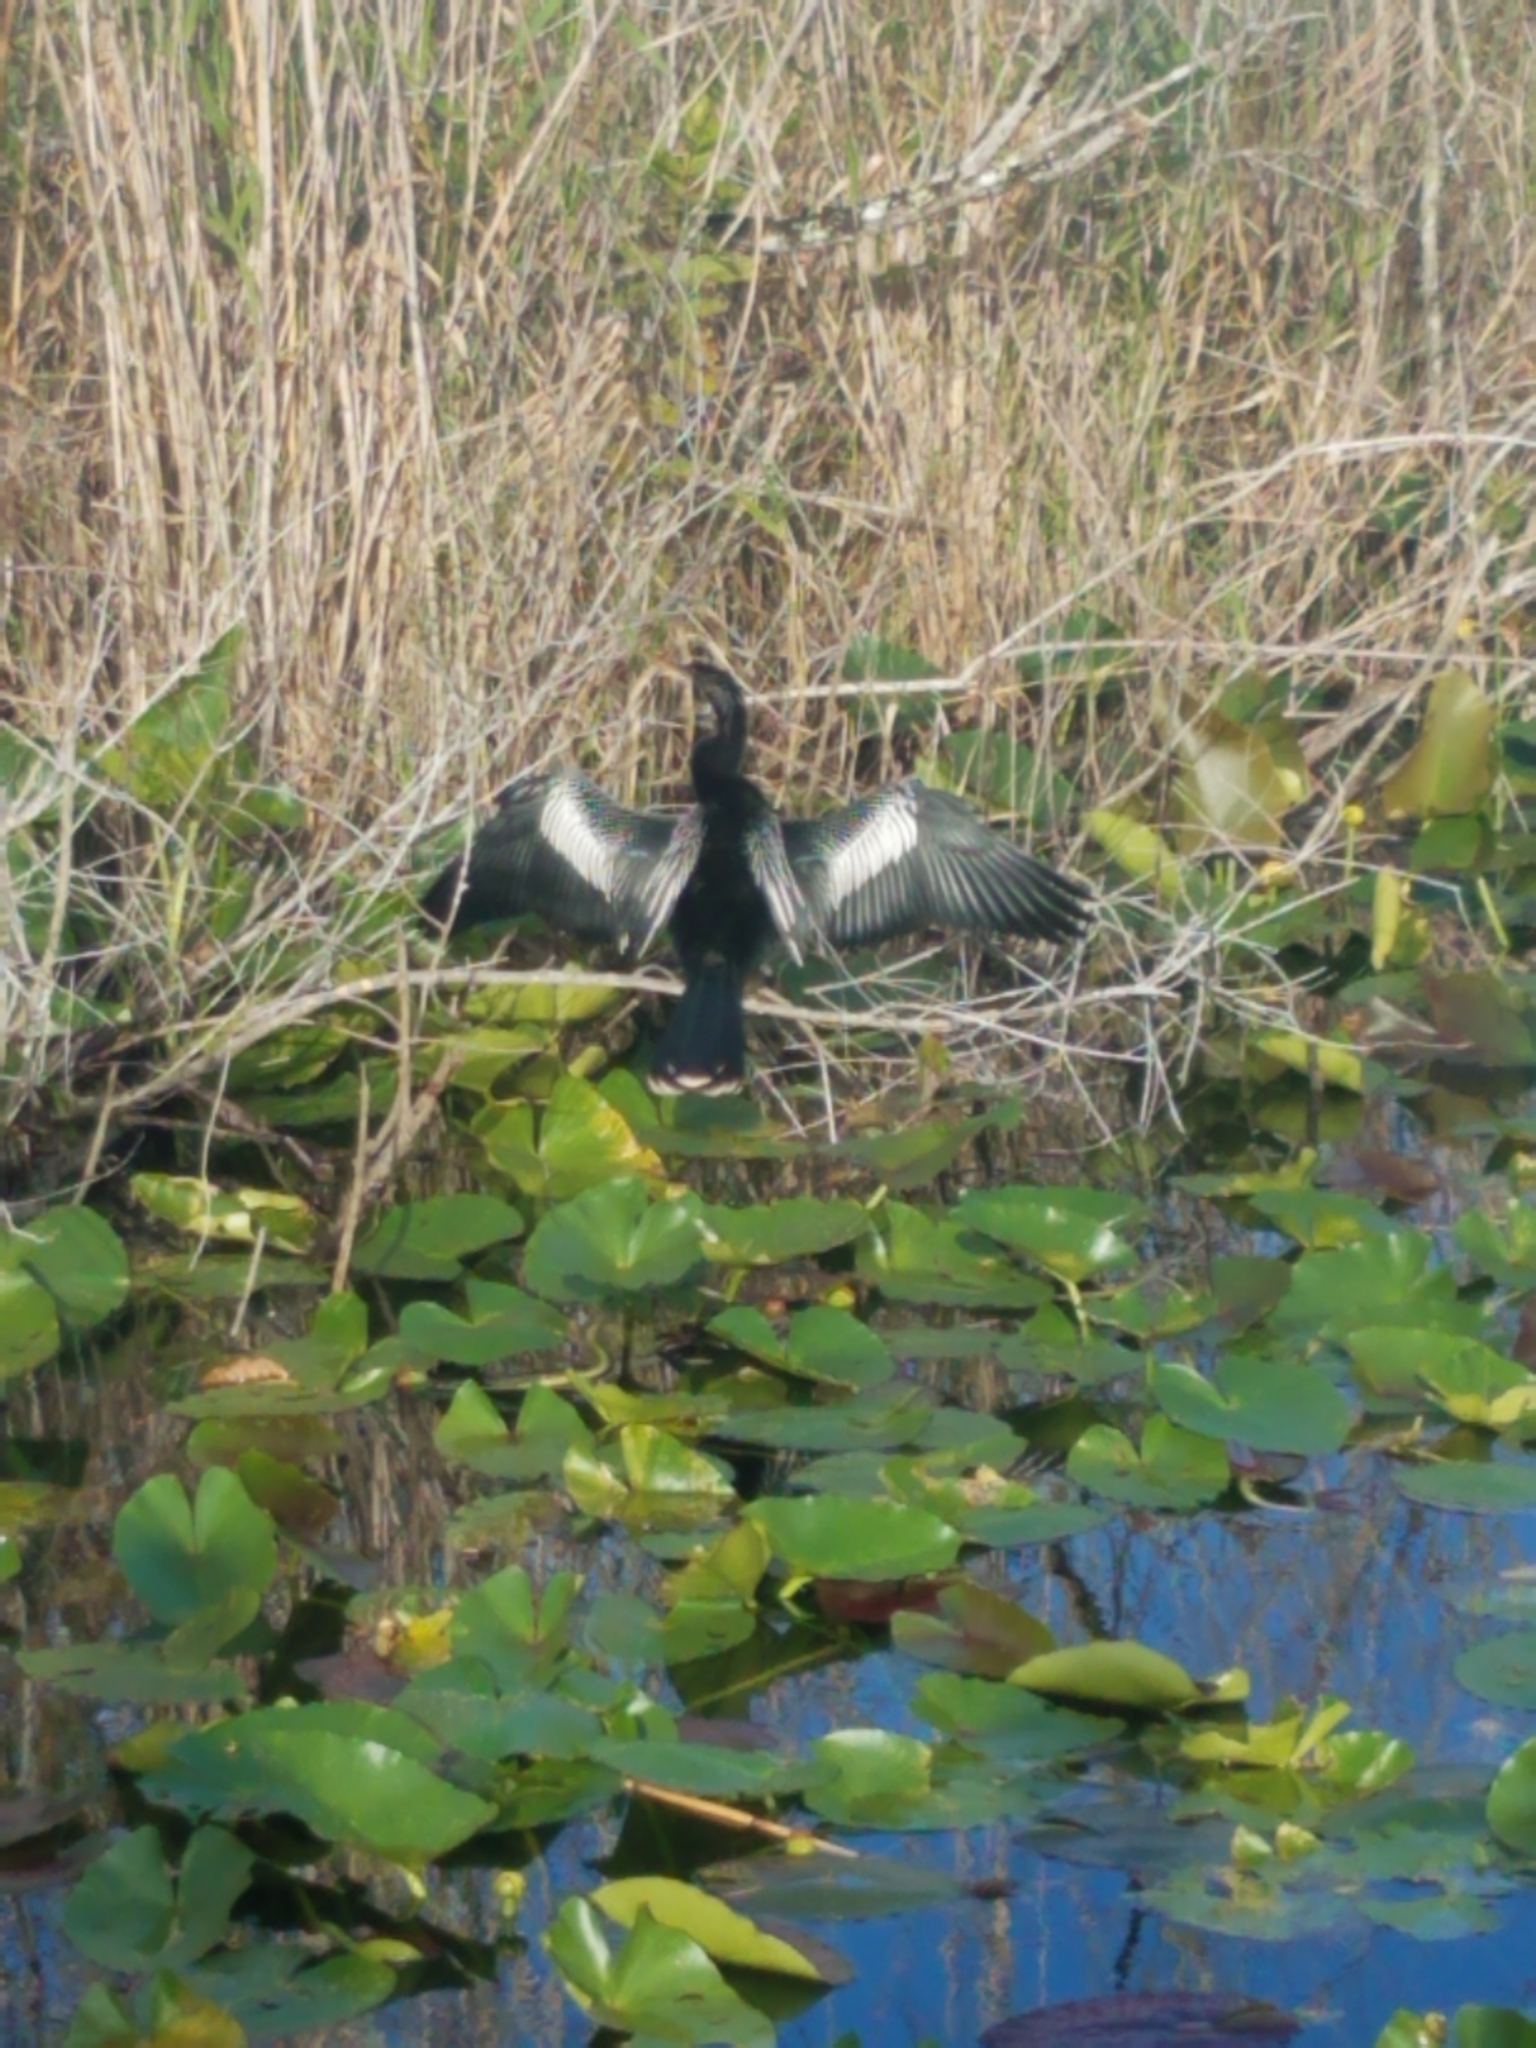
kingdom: Animalia
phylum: Chordata
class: Aves
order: Suliformes
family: Anhingidae
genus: Anhinga
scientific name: Anhinga anhinga
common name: Anhinga
